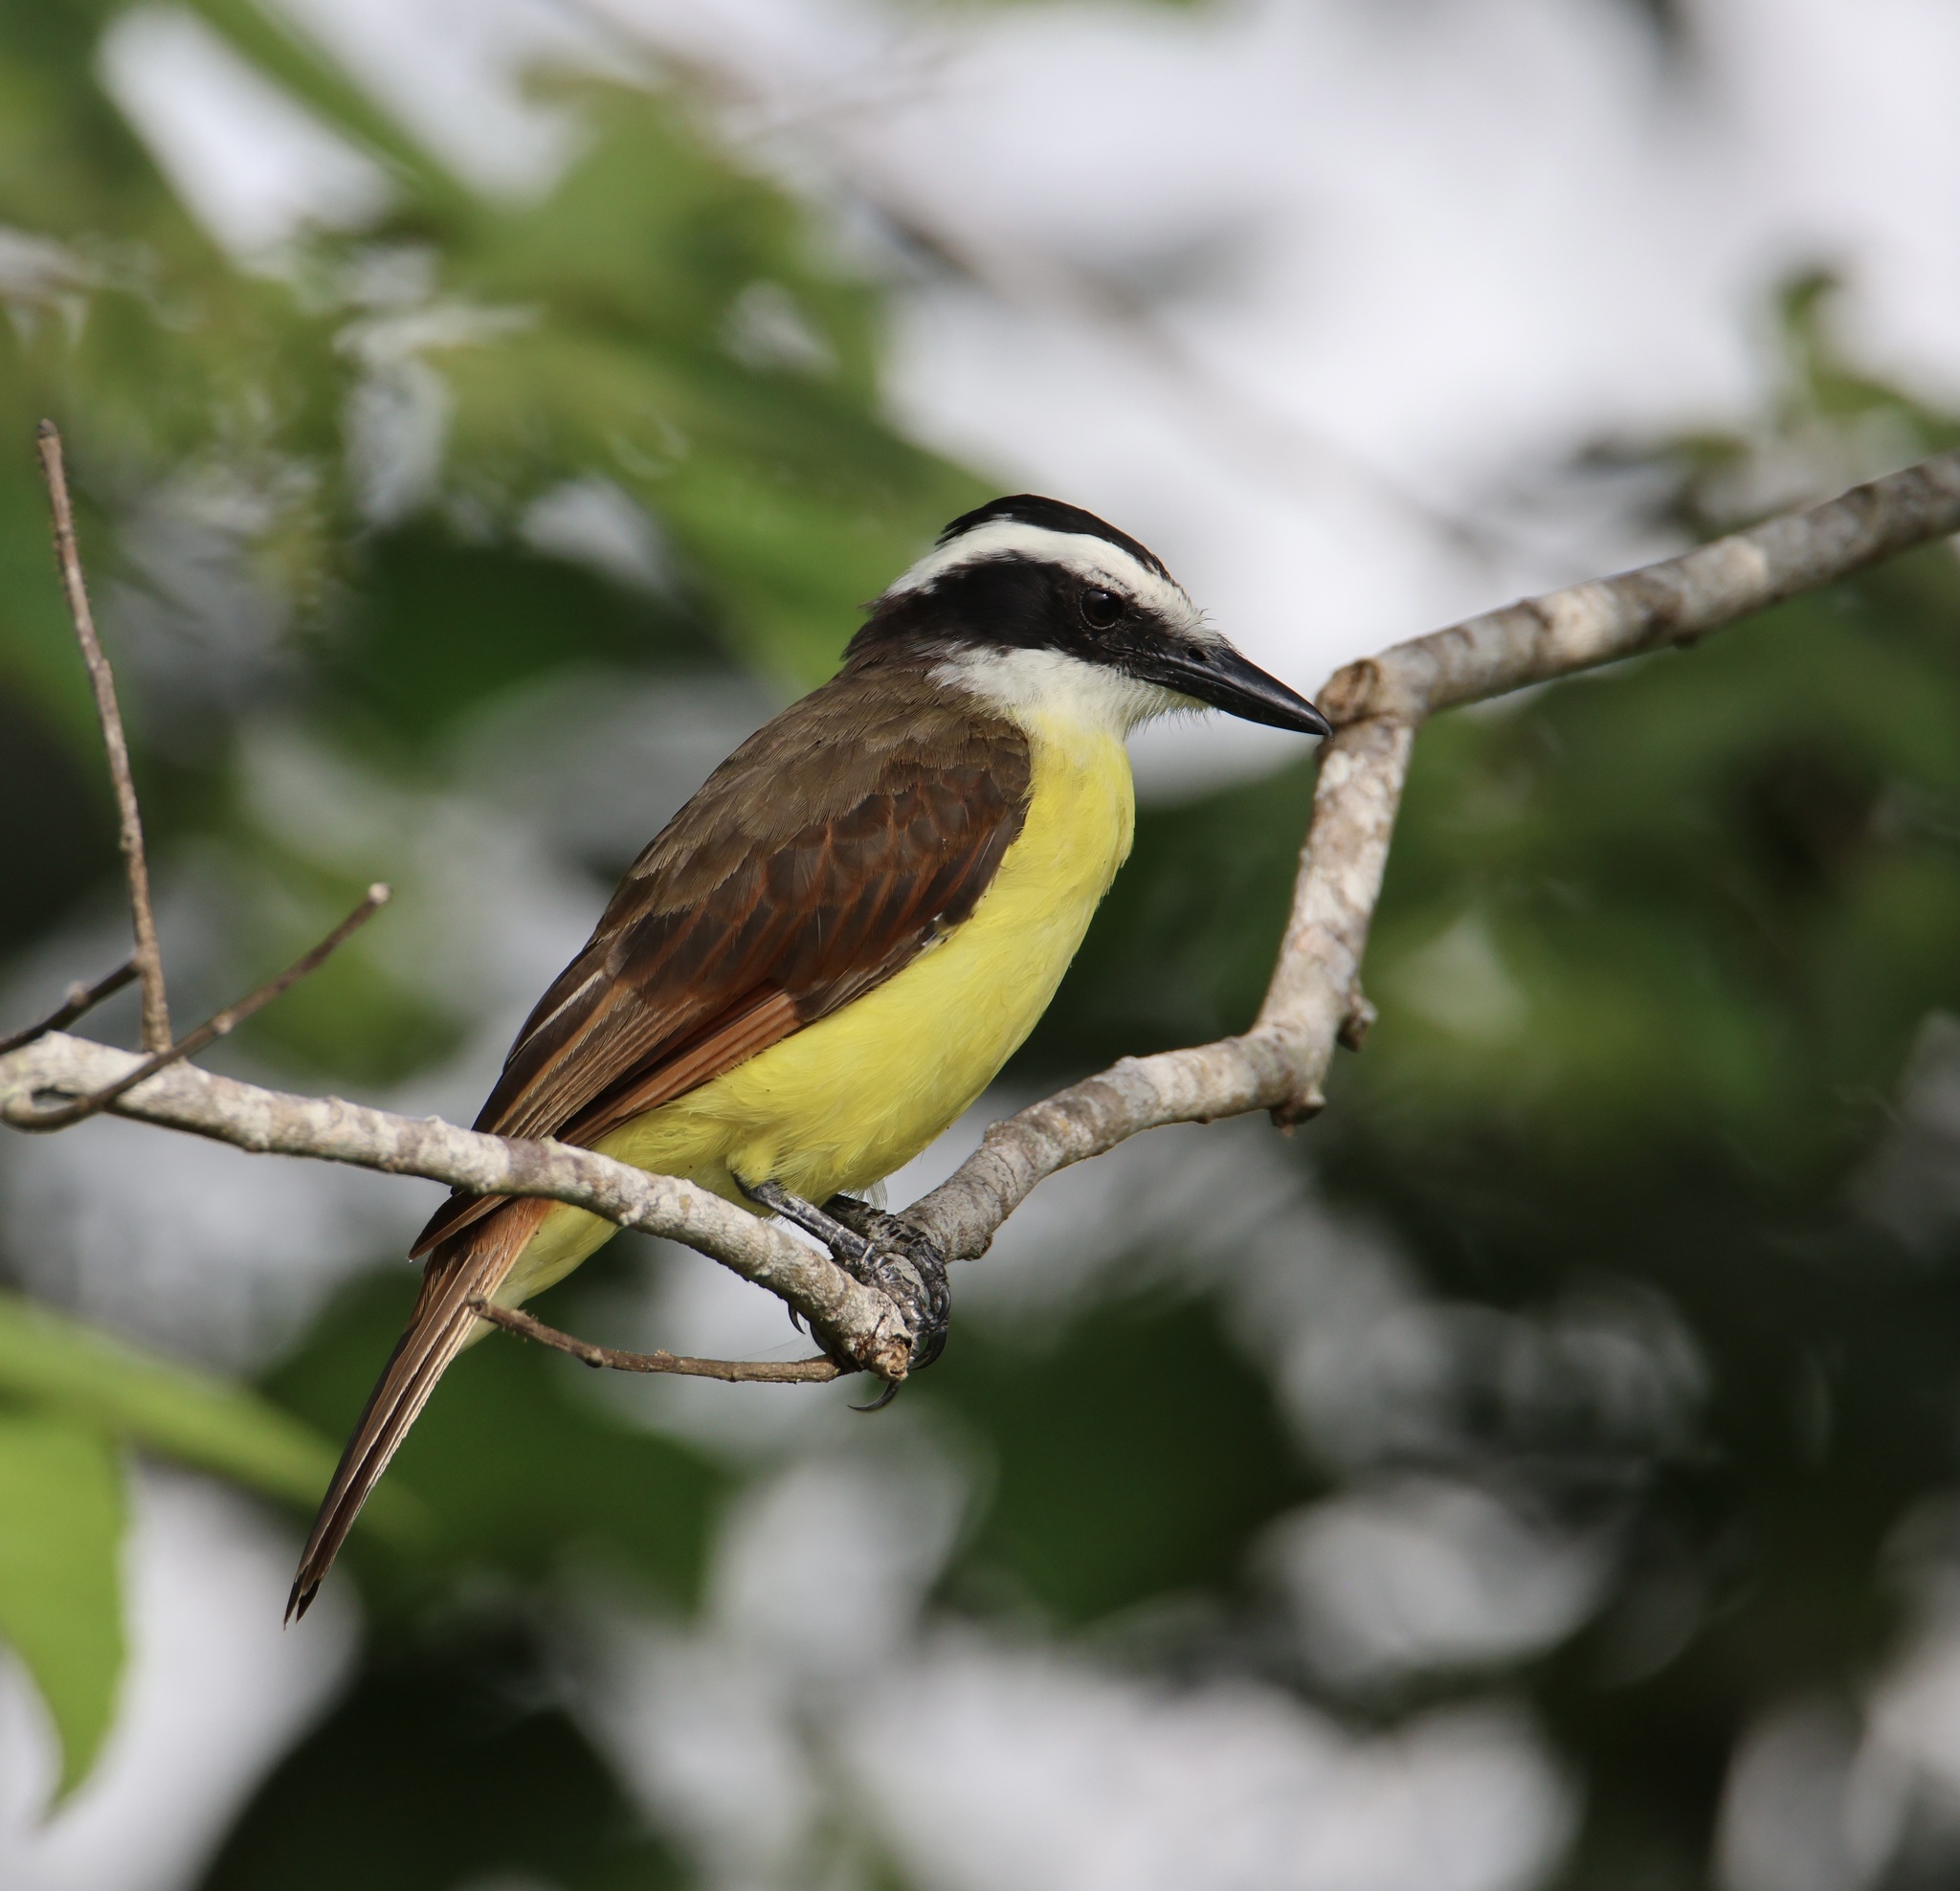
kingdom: Animalia
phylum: Chordata
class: Aves
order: Passeriformes
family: Tyrannidae
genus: Pitangus
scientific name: Pitangus sulphuratus
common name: Great kiskadee
